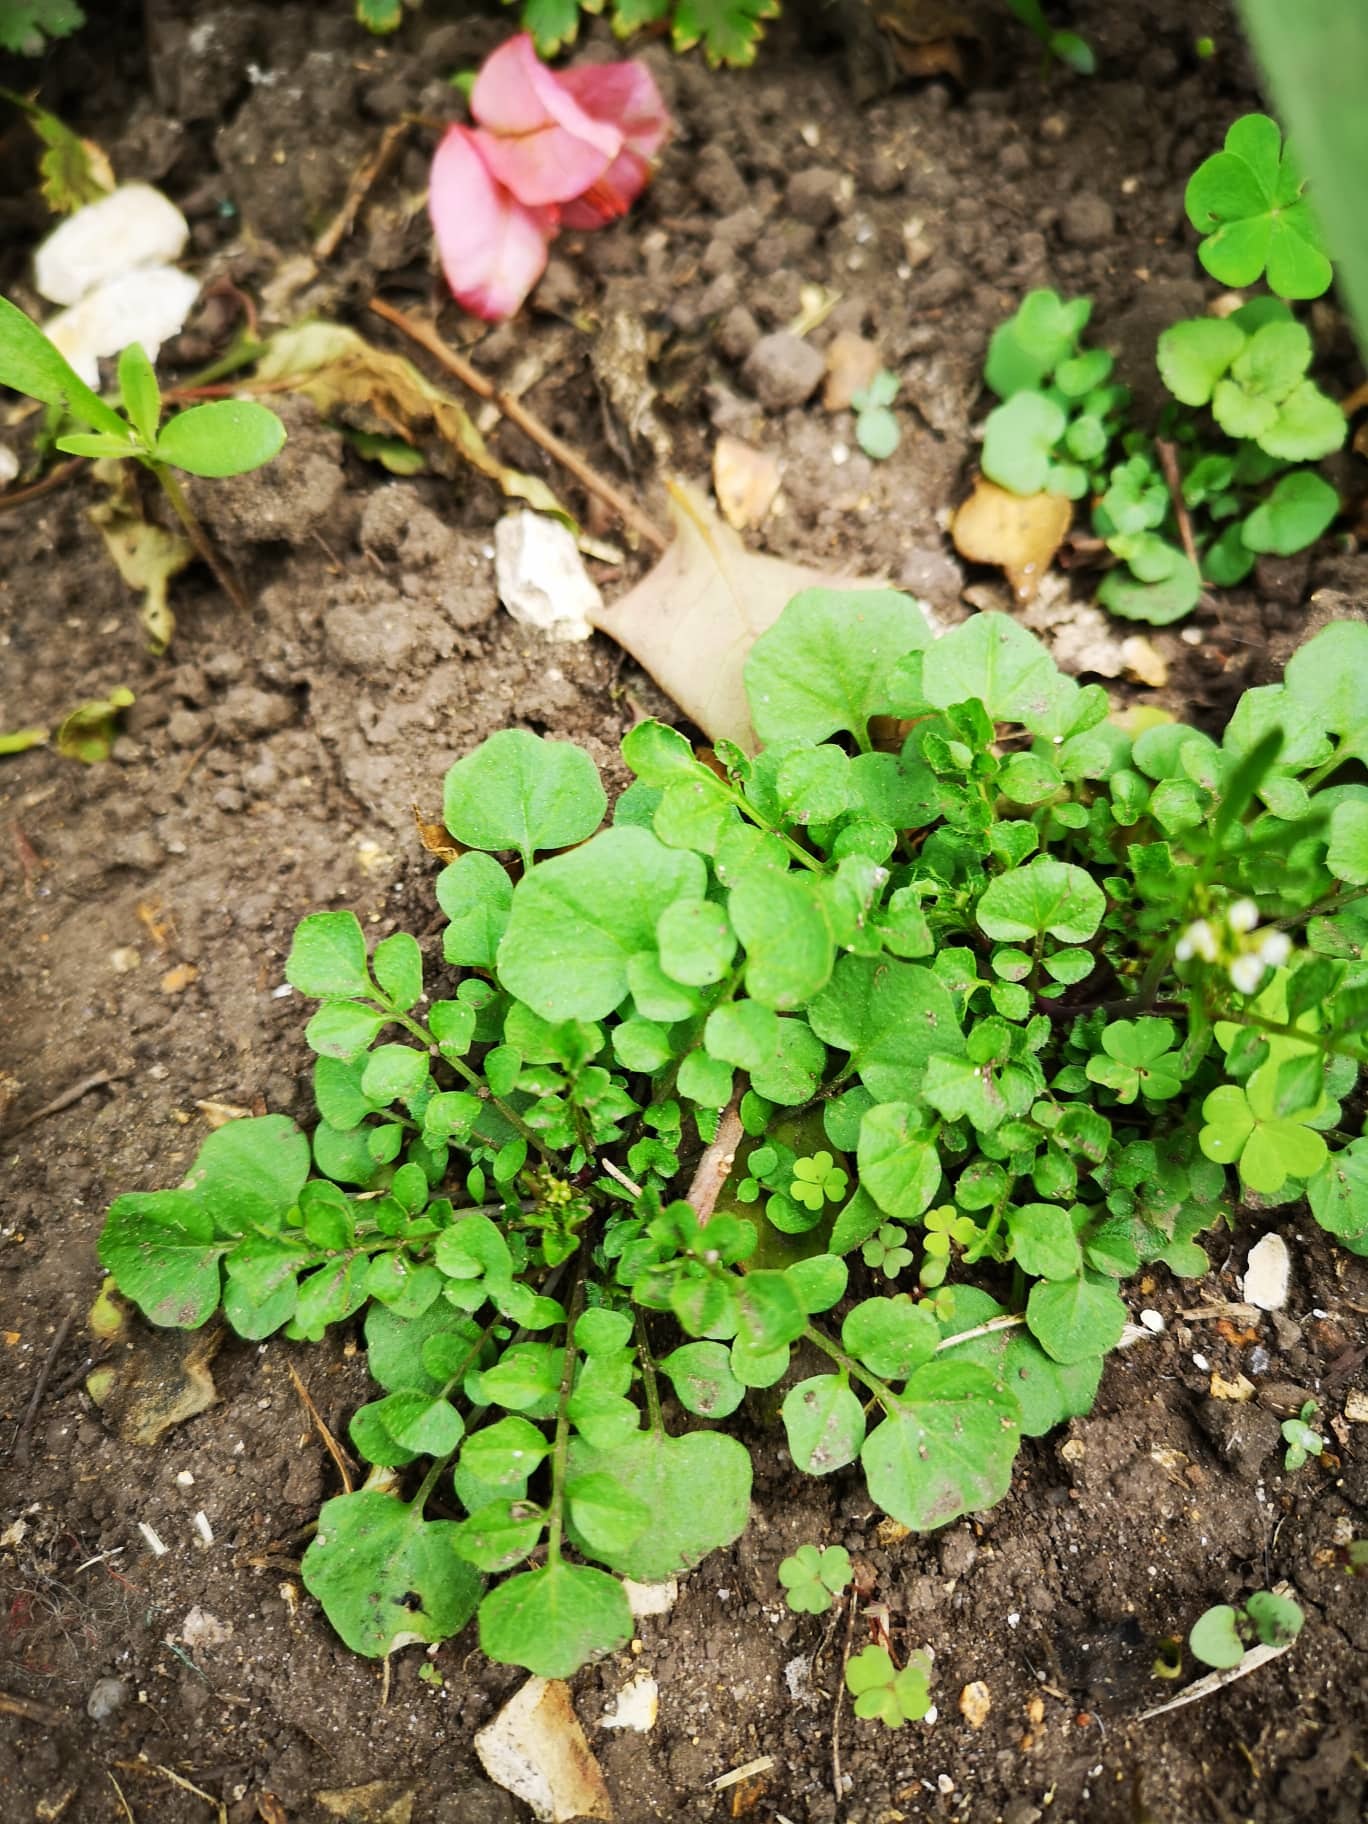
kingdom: Plantae
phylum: Tracheophyta
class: Magnoliopsida
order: Brassicales
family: Brassicaceae
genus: Cardamine
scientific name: Cardamine hirsuta
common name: Hairy bittercress
